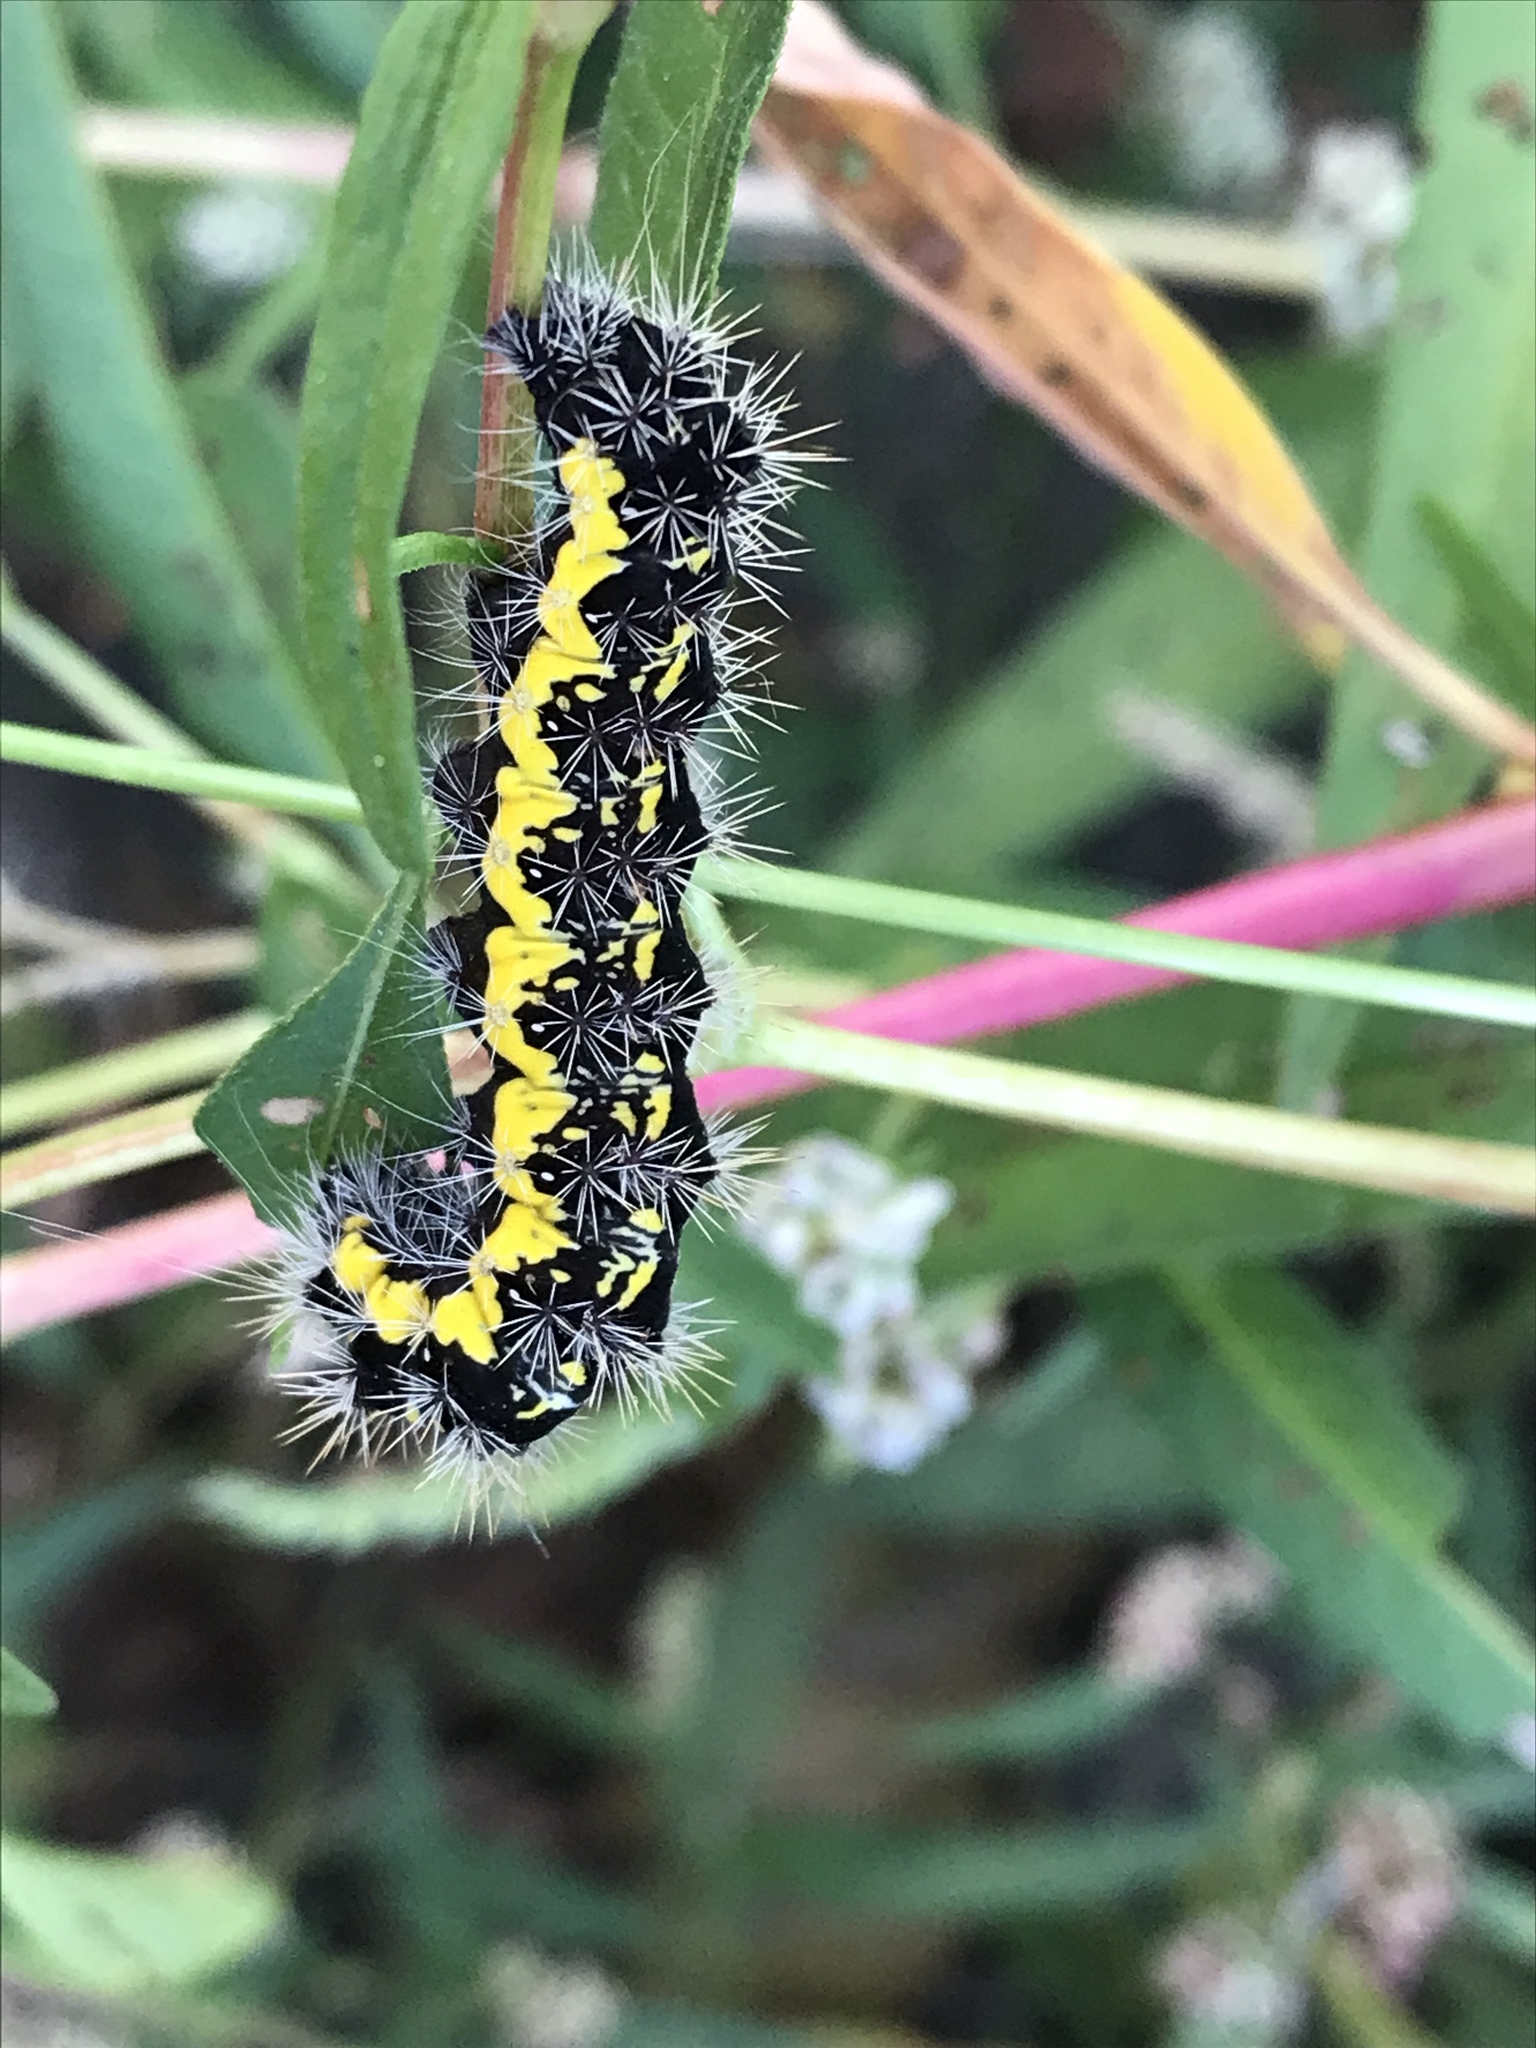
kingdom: Animalia
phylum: Arthropoda
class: Insecta
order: Lepidoptera
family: Noctuidae
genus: Acronicta
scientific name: Acronicta oblinita
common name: Smeared dagger
